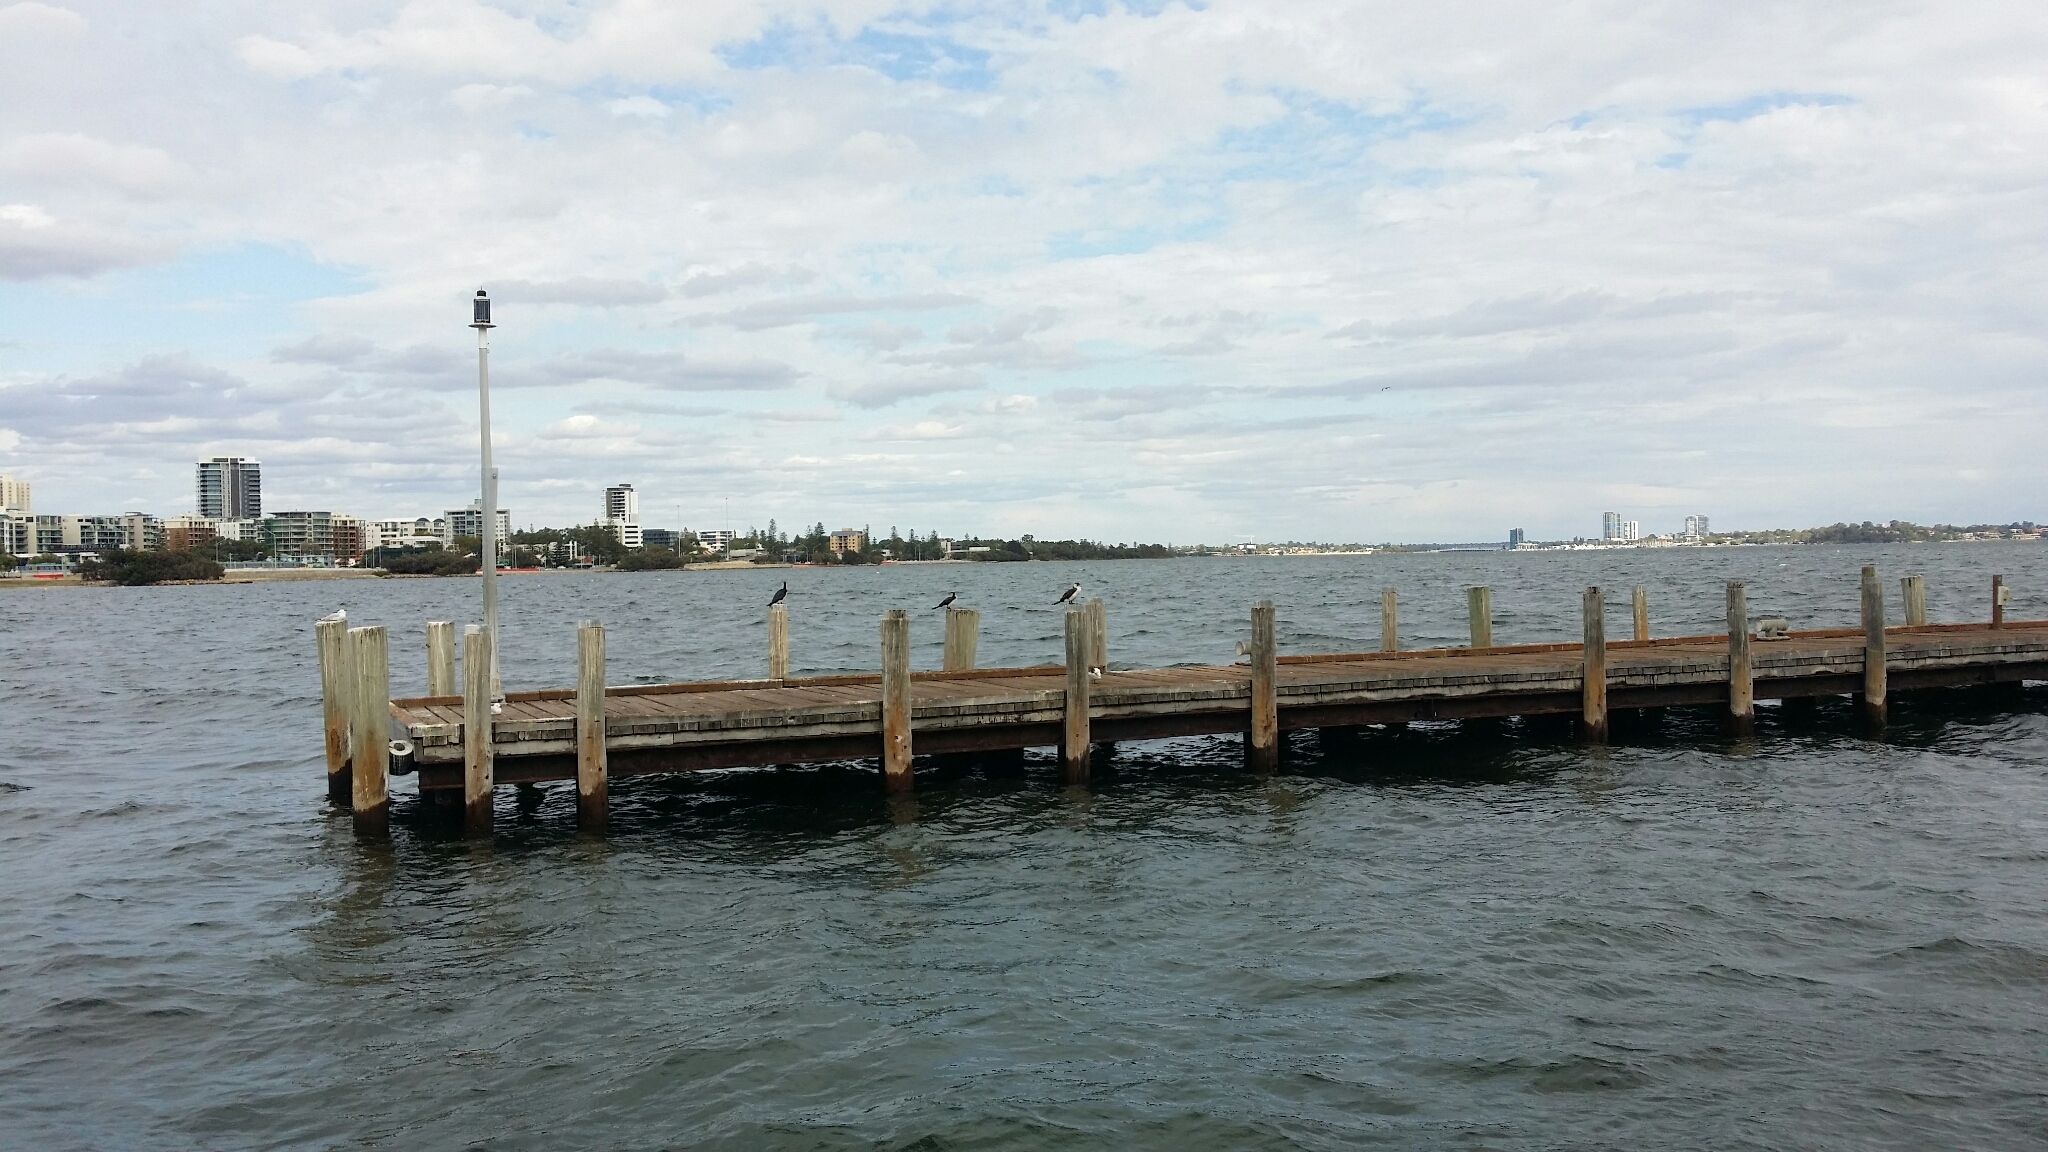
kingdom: Animalia
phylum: Chordata
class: Aves
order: Suliformes
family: Phalacrocoracidae
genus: Microcarbo
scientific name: Microcarbo melanoleucos
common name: Little pied cormorant
